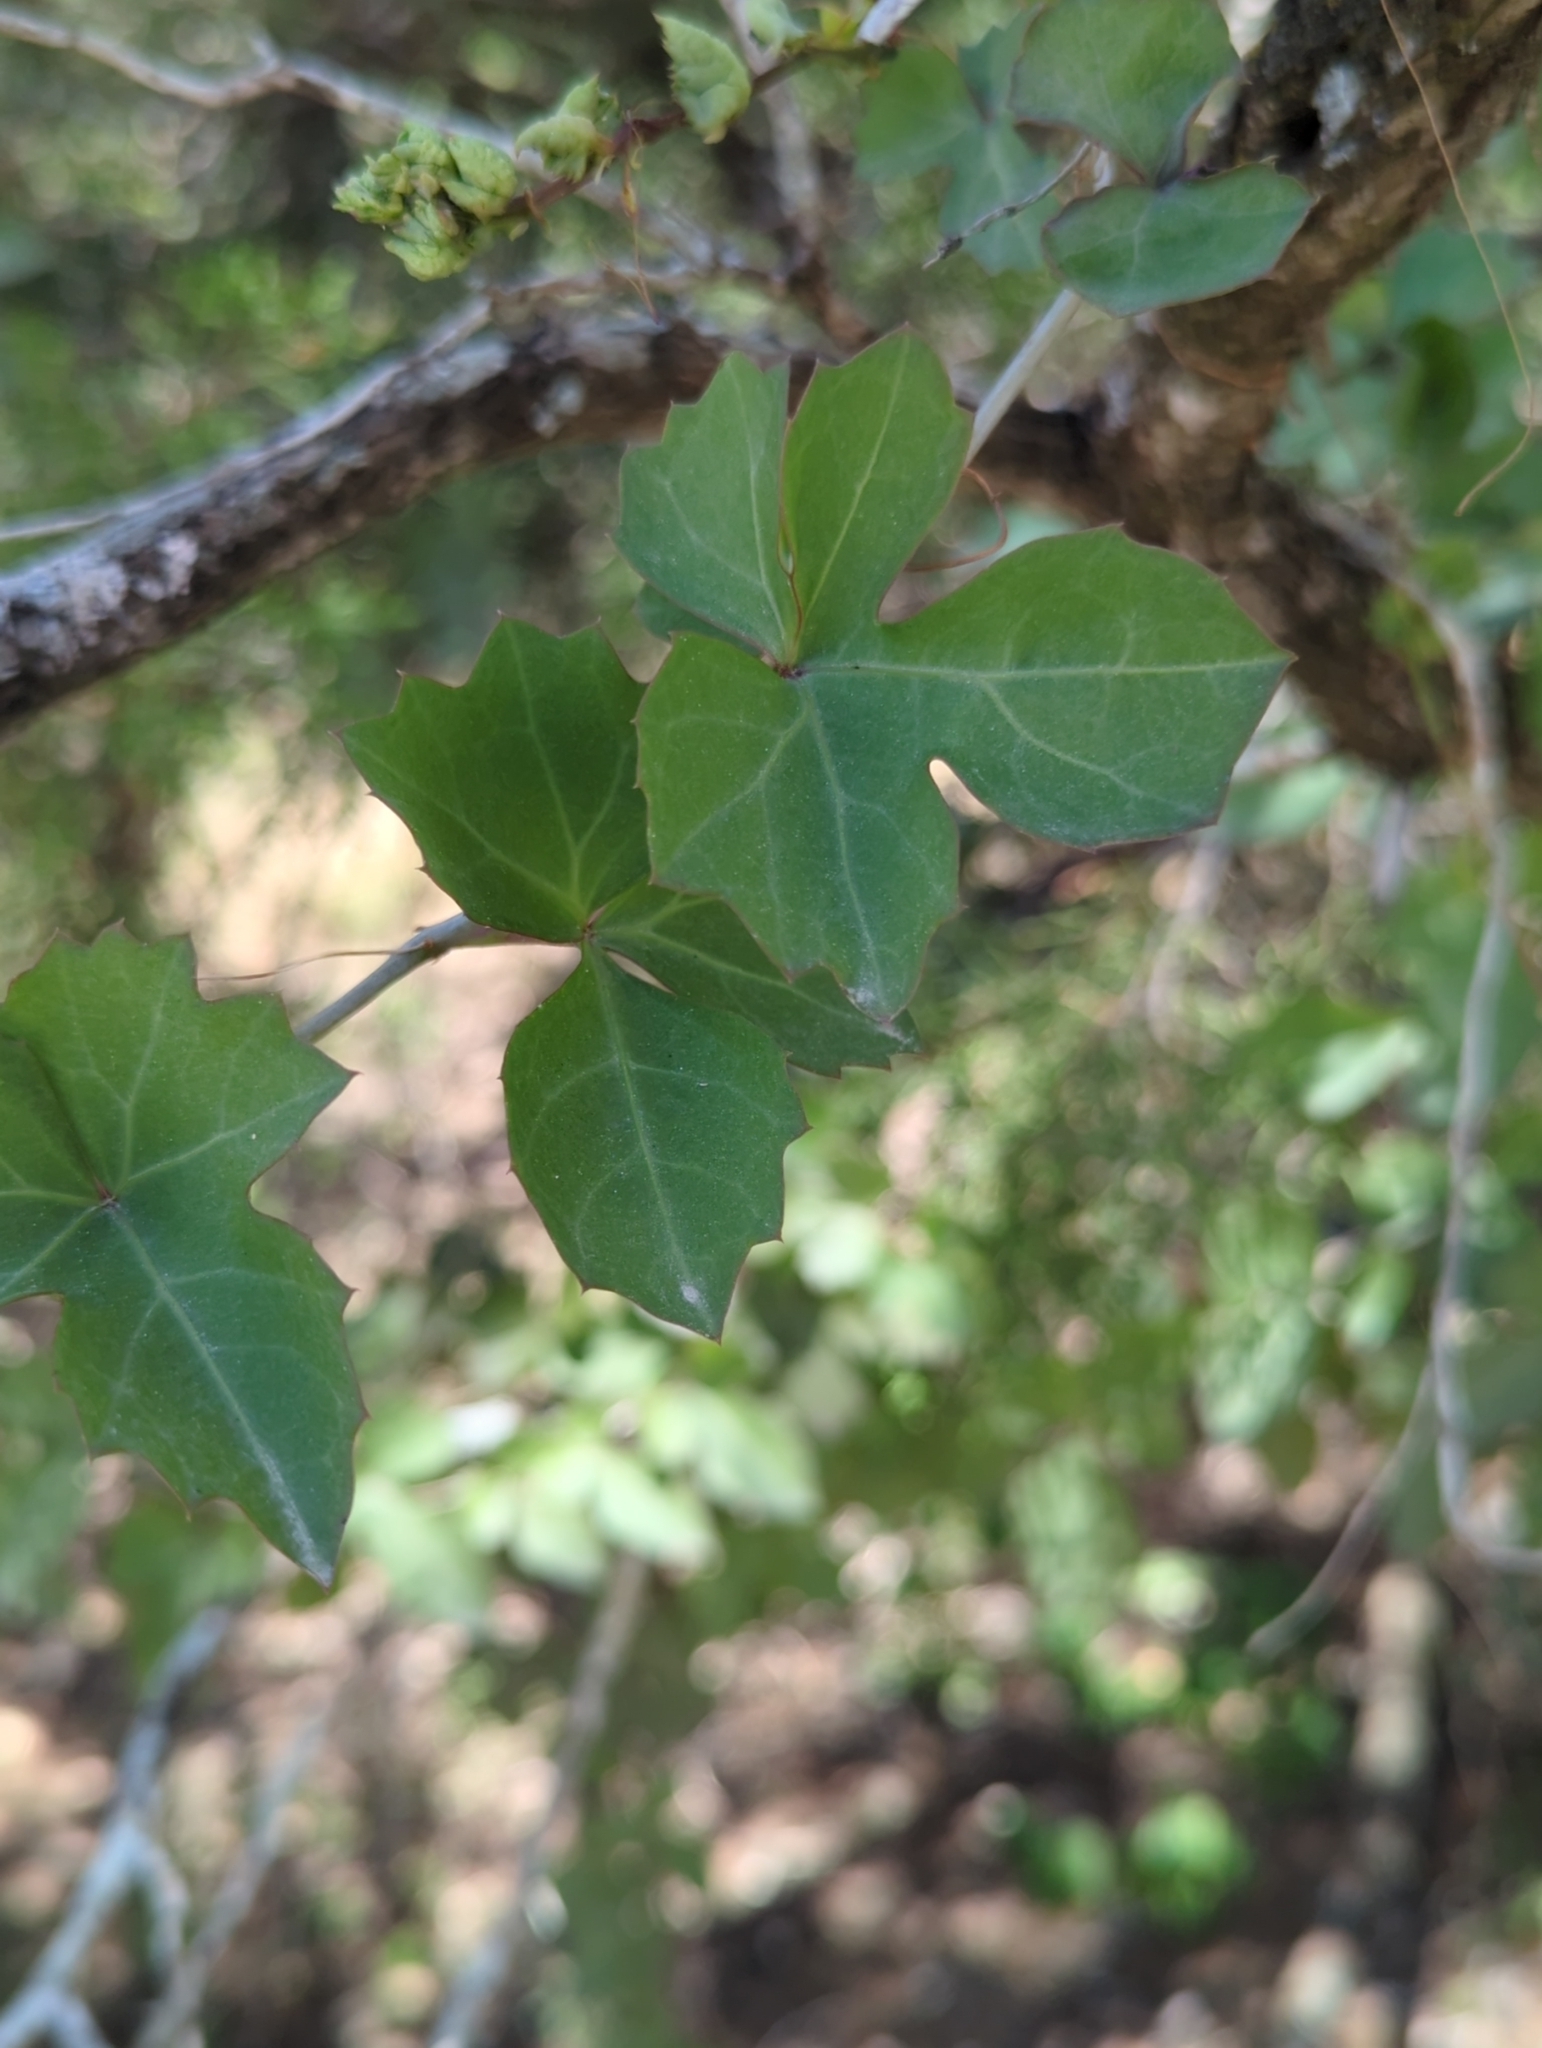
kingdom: Plantae
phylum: Tracheophyta
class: Magnoliopsida
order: Vitales
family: Vitaceae
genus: Cissus
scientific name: Cissus trifoliata
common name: Vine-sorrel
